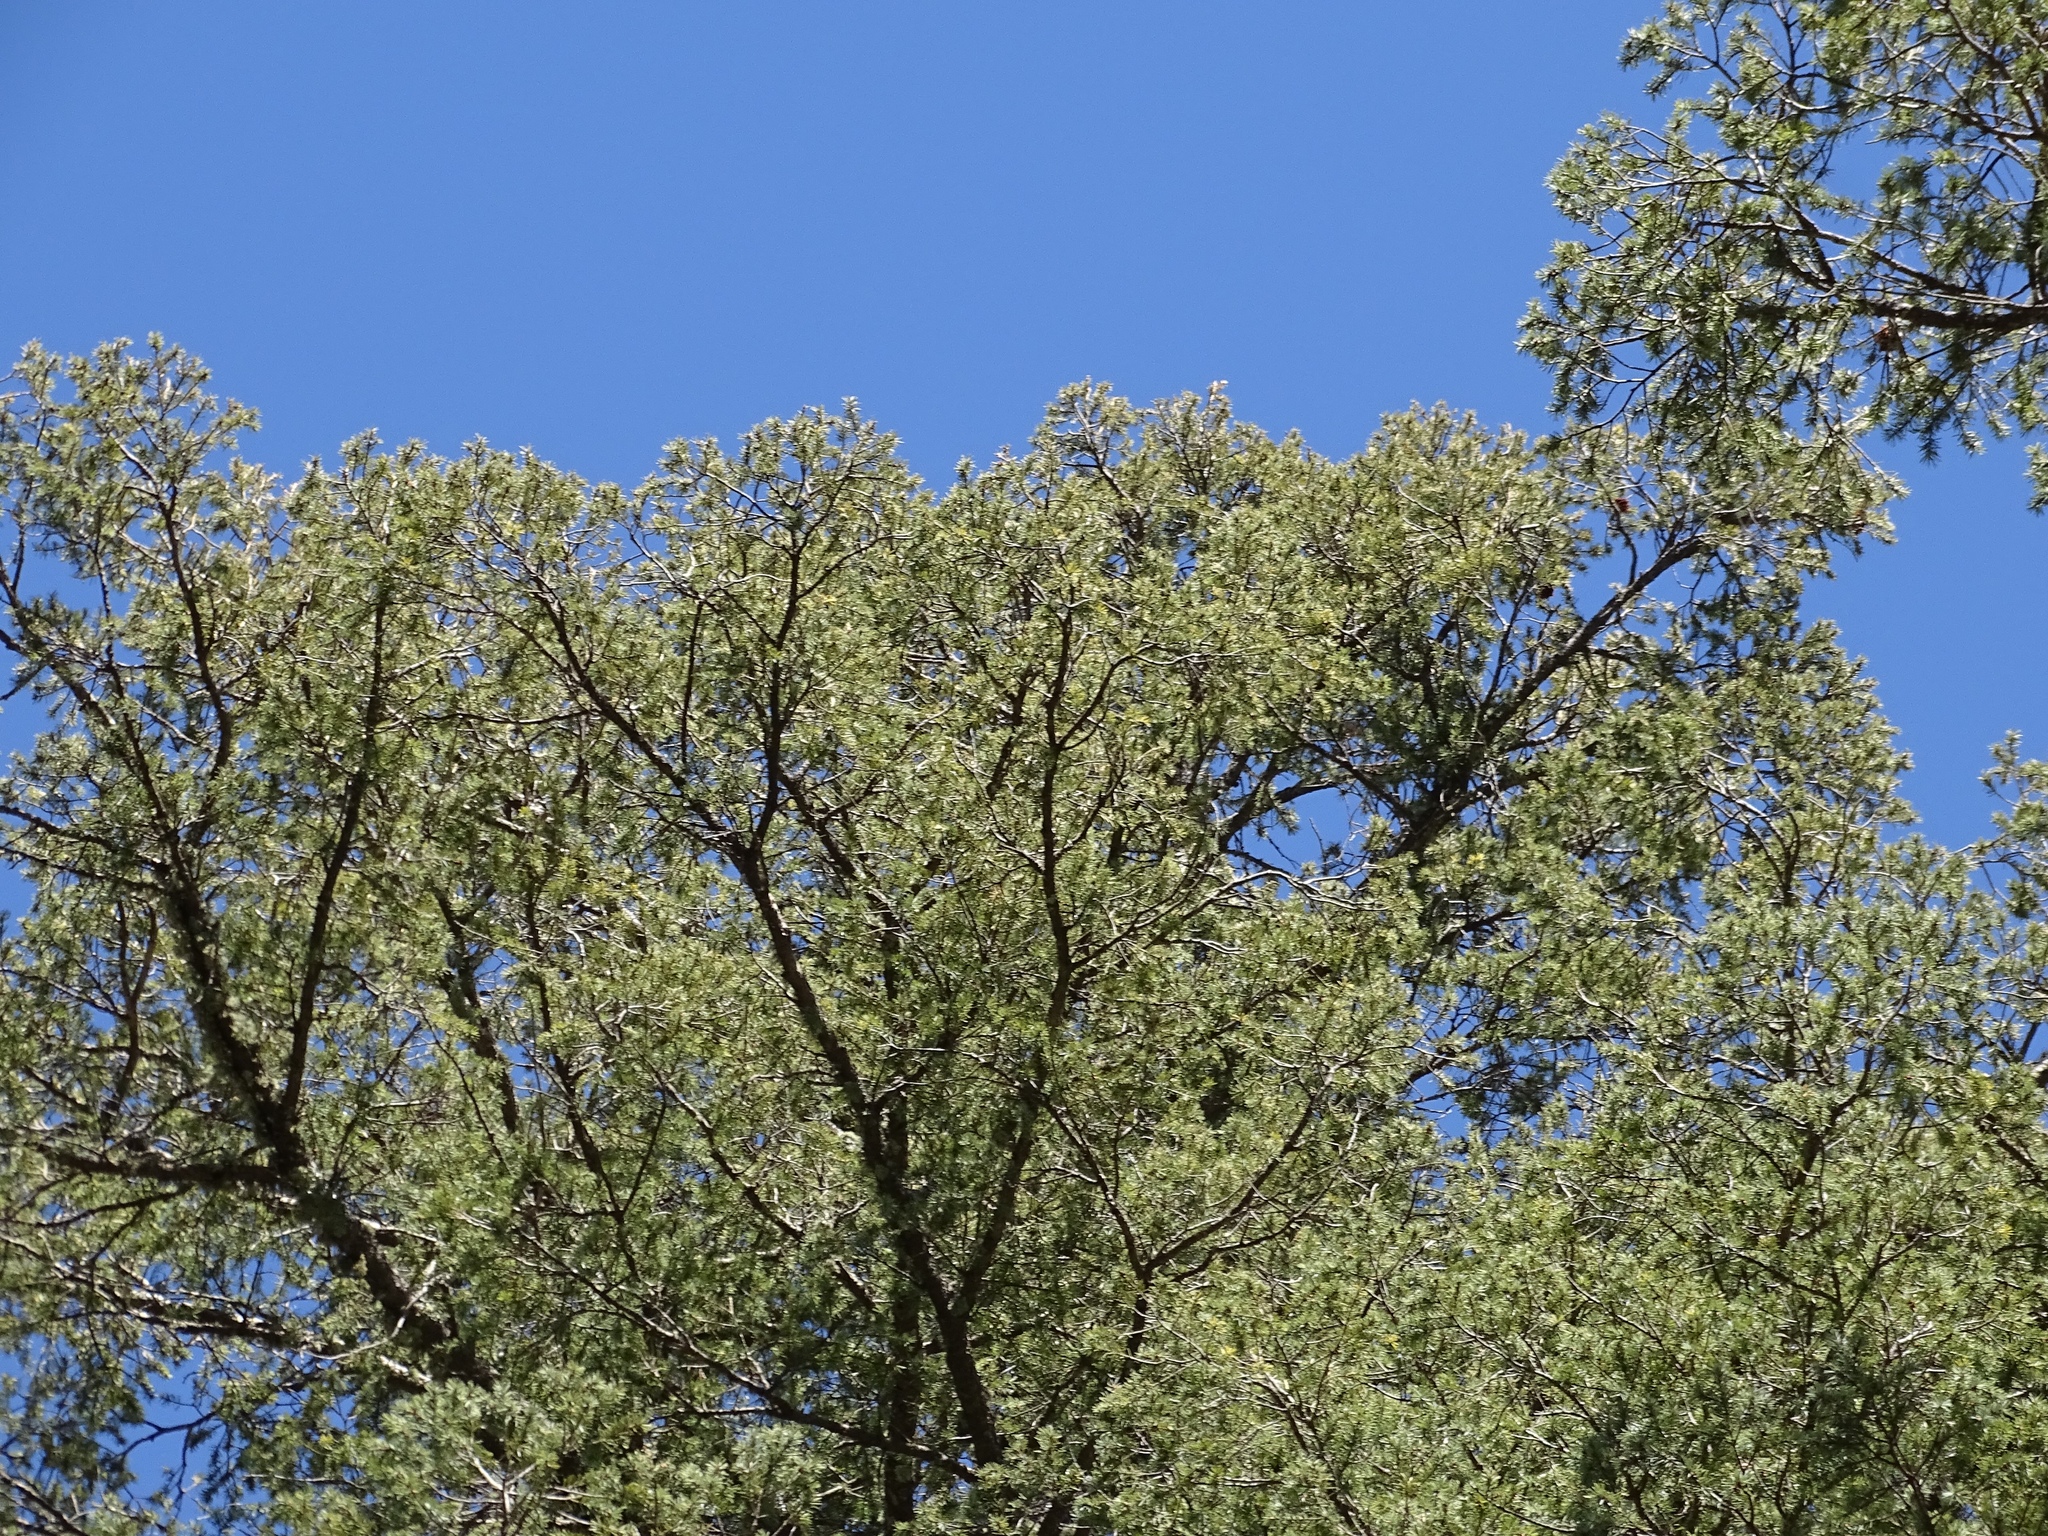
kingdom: Plantae
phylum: Tracheophyta
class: Pinopsida
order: Pinales
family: Pinaceae
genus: Pseudotsuga
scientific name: Pseudotsuga menziesii
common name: Douglas fir
